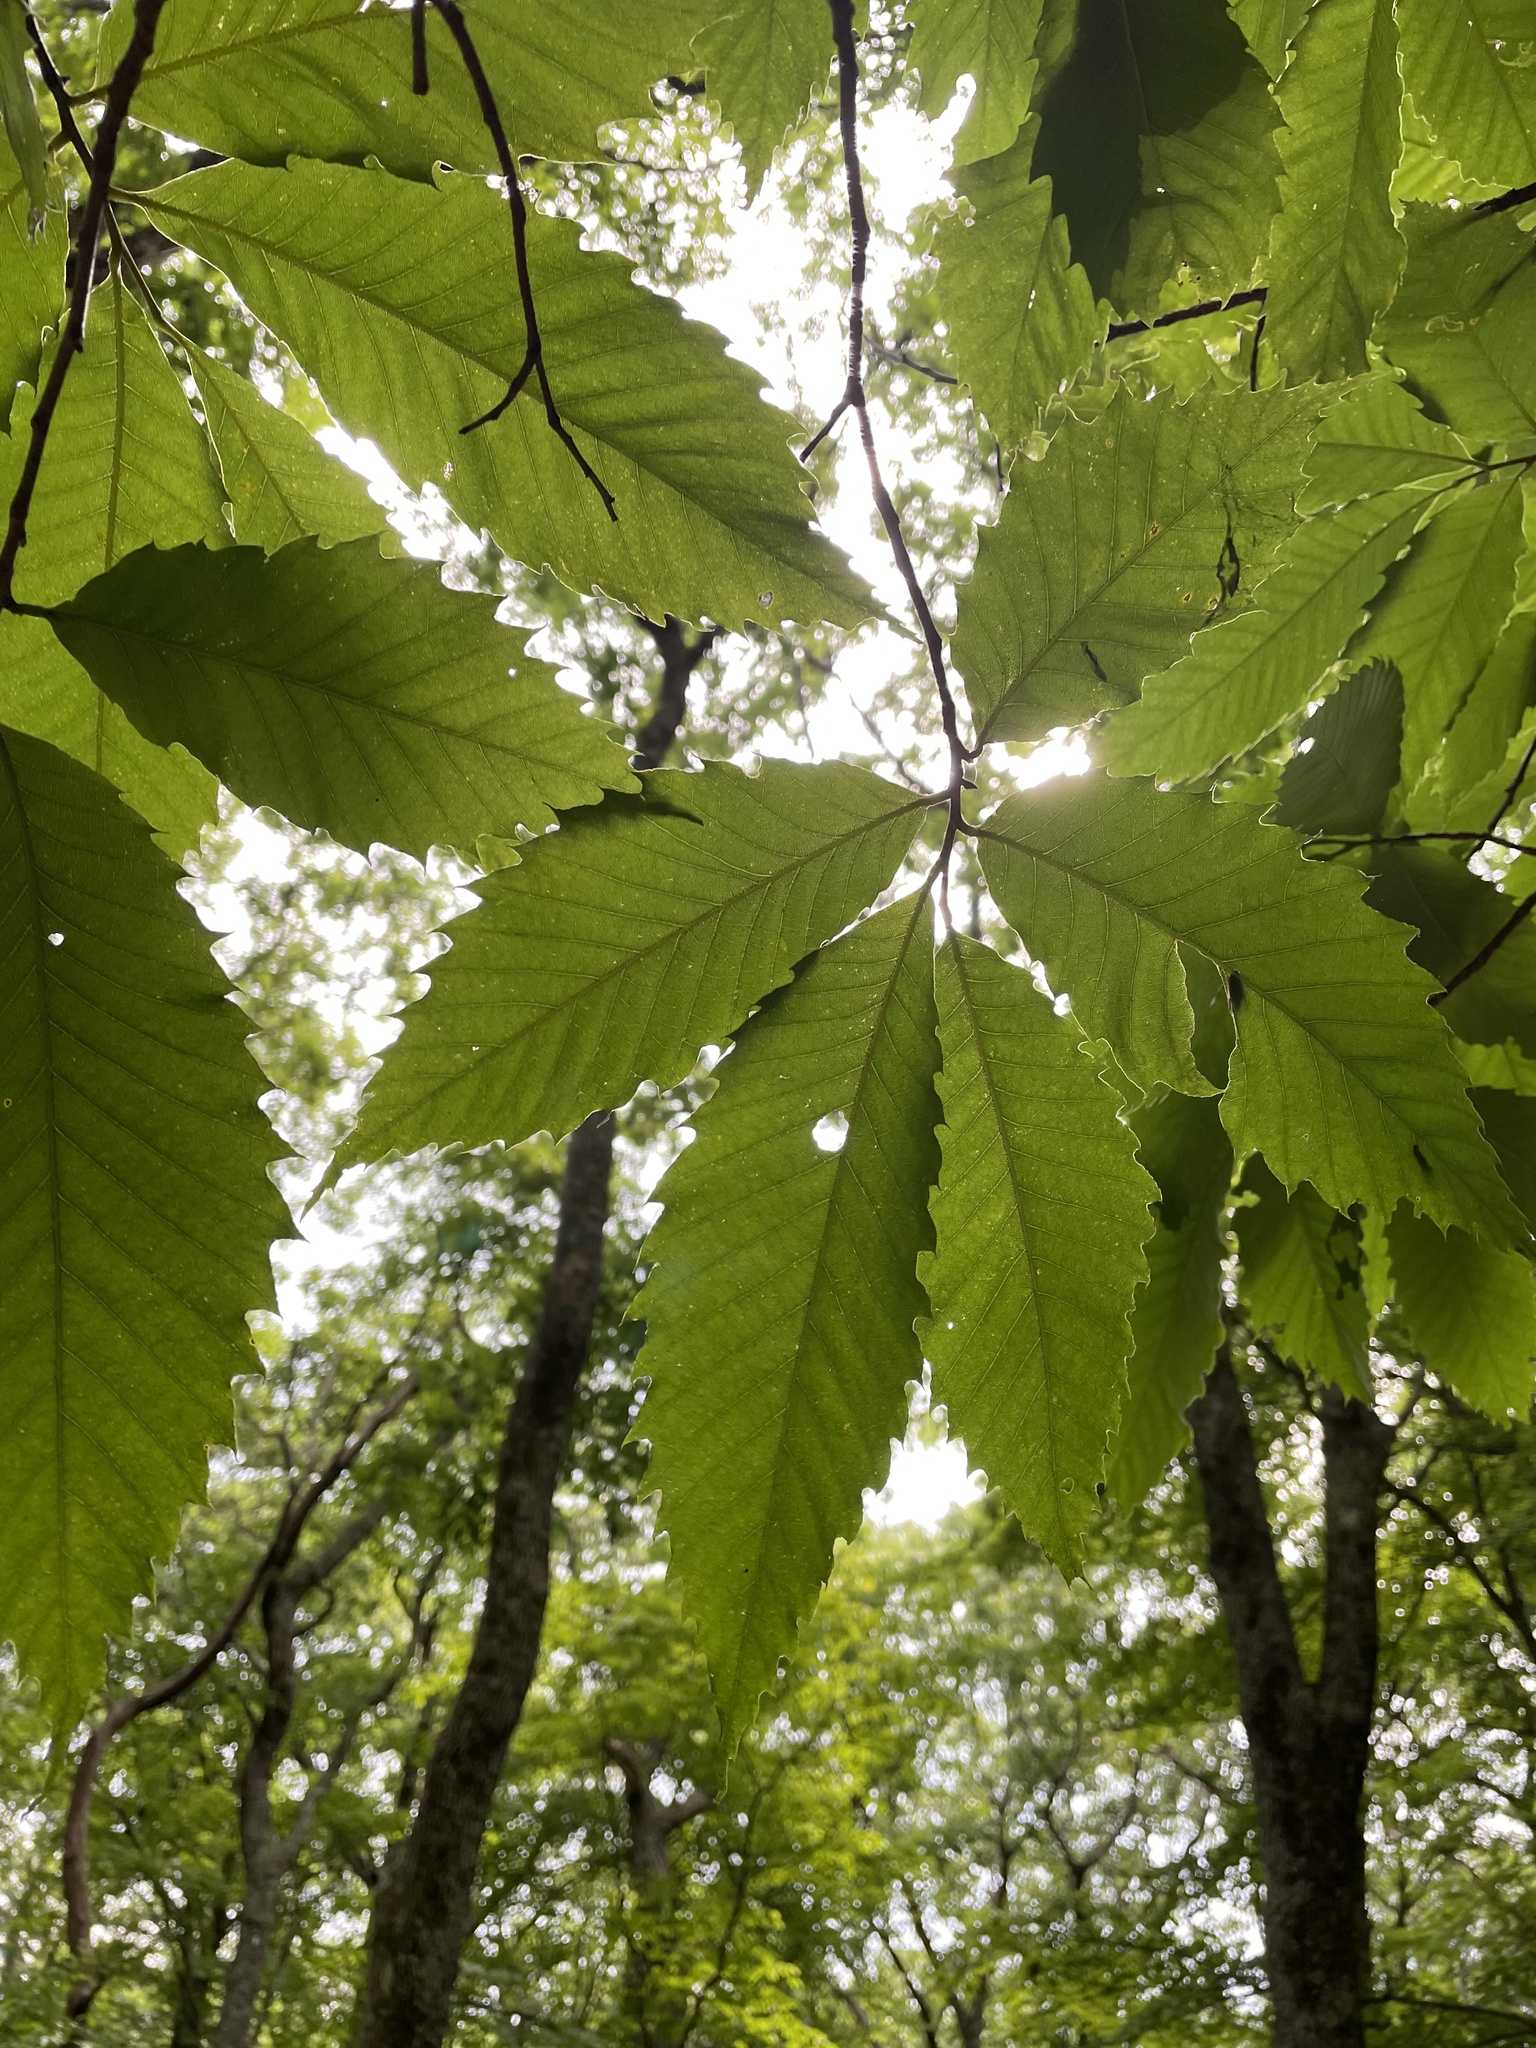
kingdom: Plantae
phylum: Tracheophyta
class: Magnoliopsida
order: Fagales
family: Fagaceae
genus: Castanea
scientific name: Castanea dentata
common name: American chestnut
